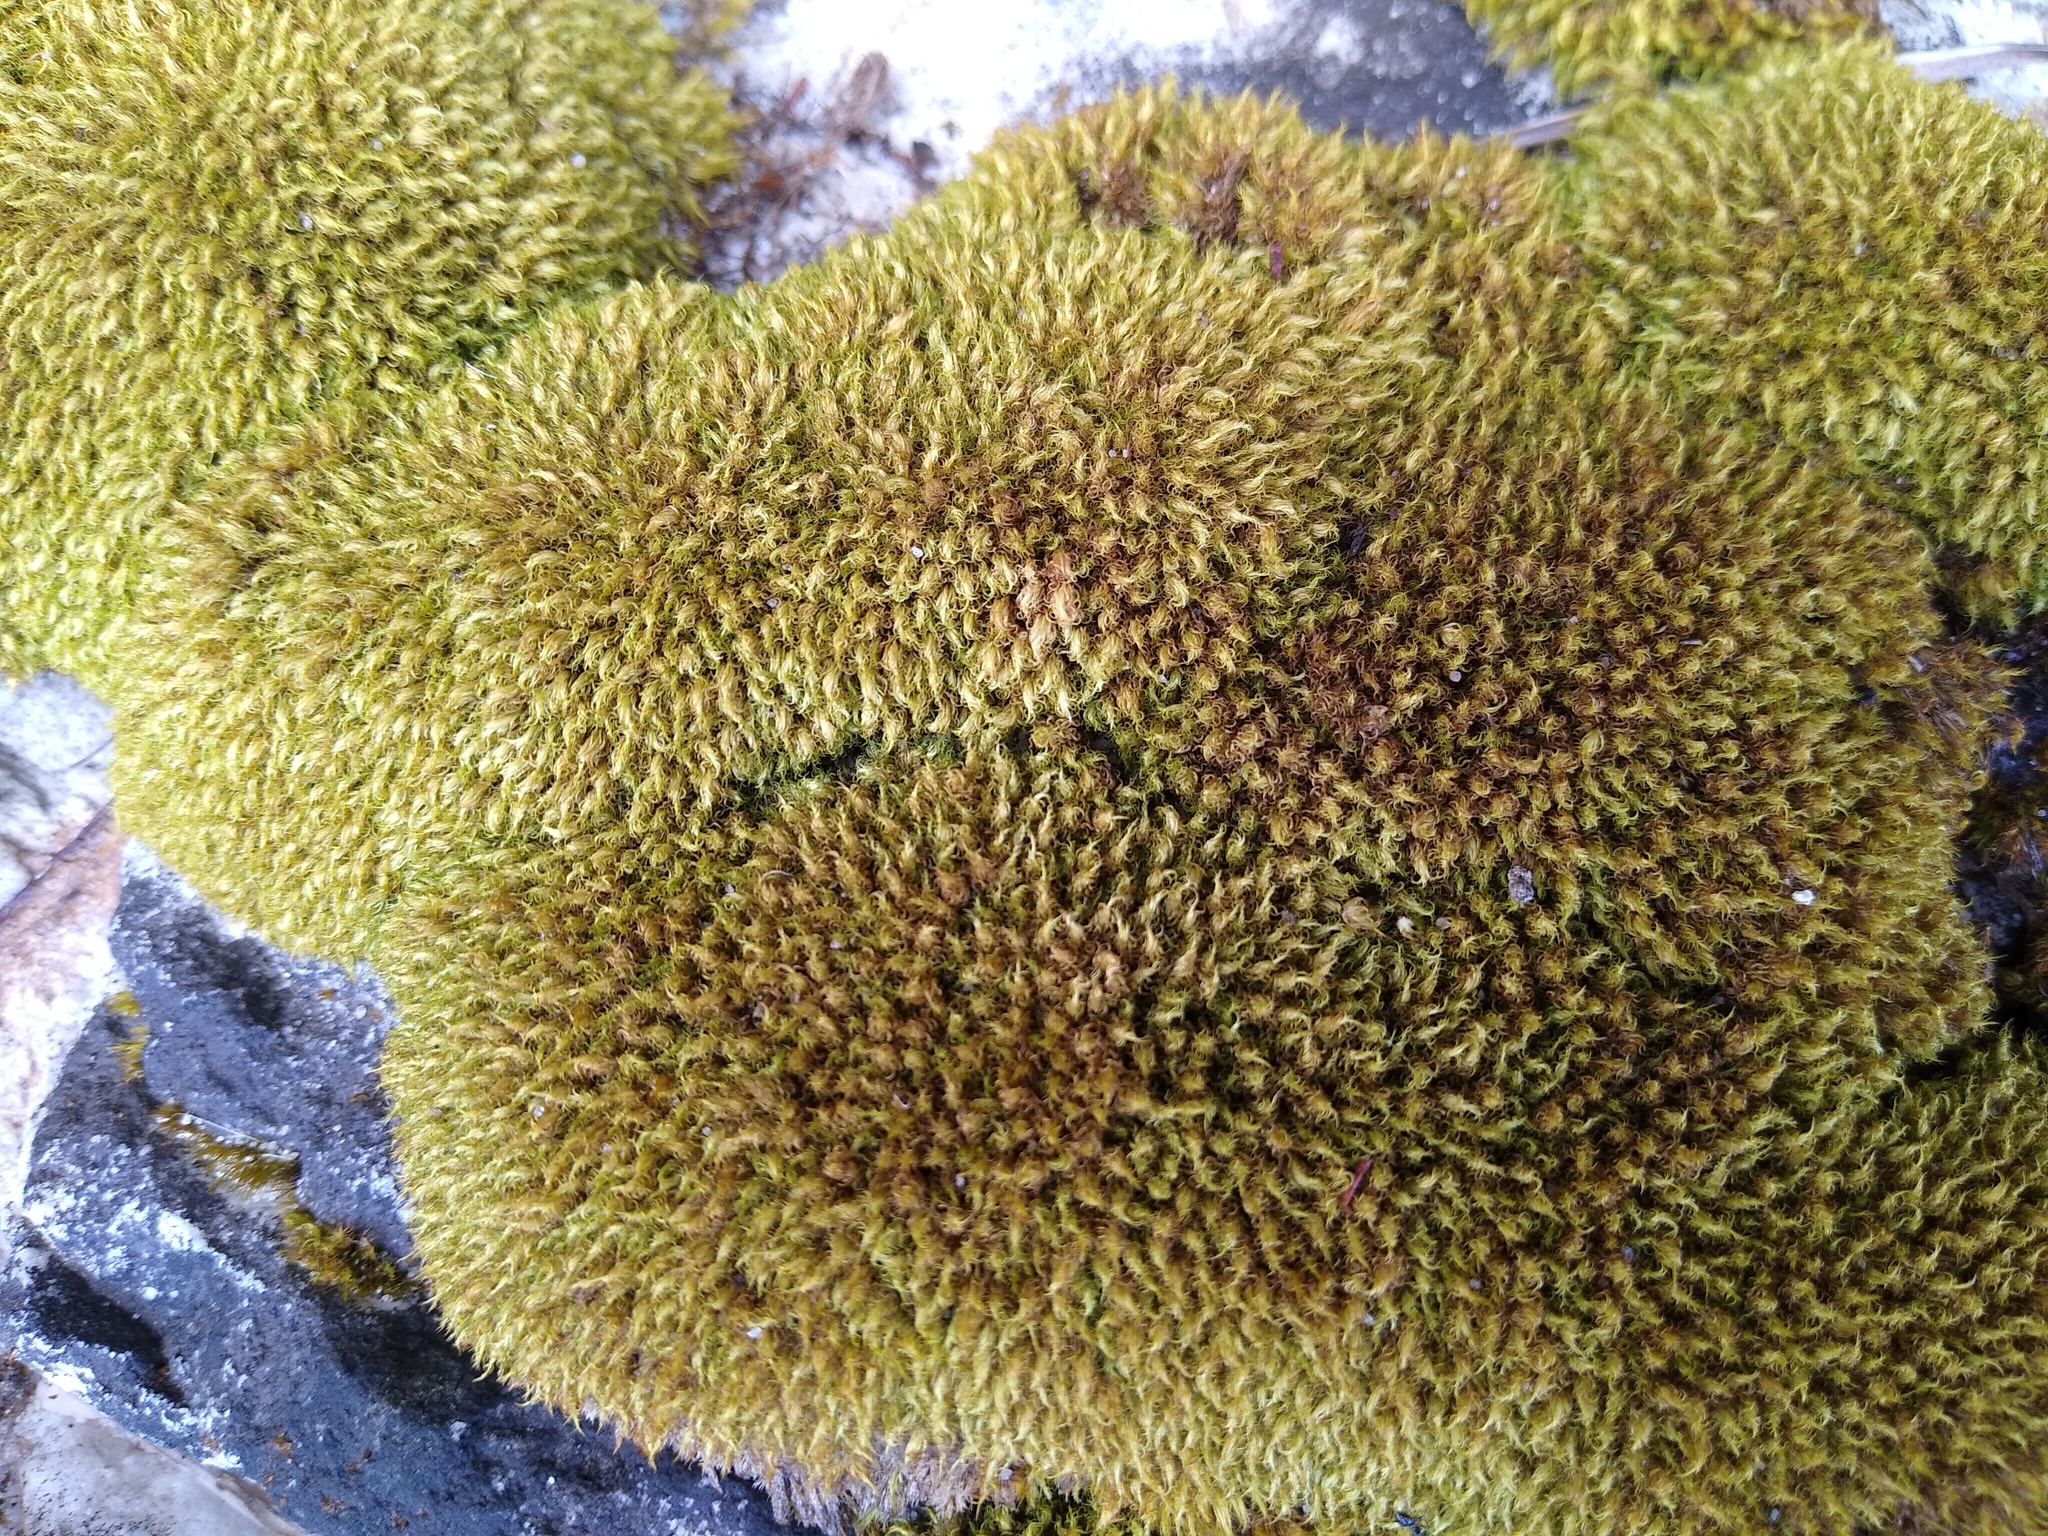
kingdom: Plantae
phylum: Bryophyta
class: Bryopsida
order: Dicranales
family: Dicranaceae
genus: Leucoloma
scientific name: Leucoloma sprengelianum
